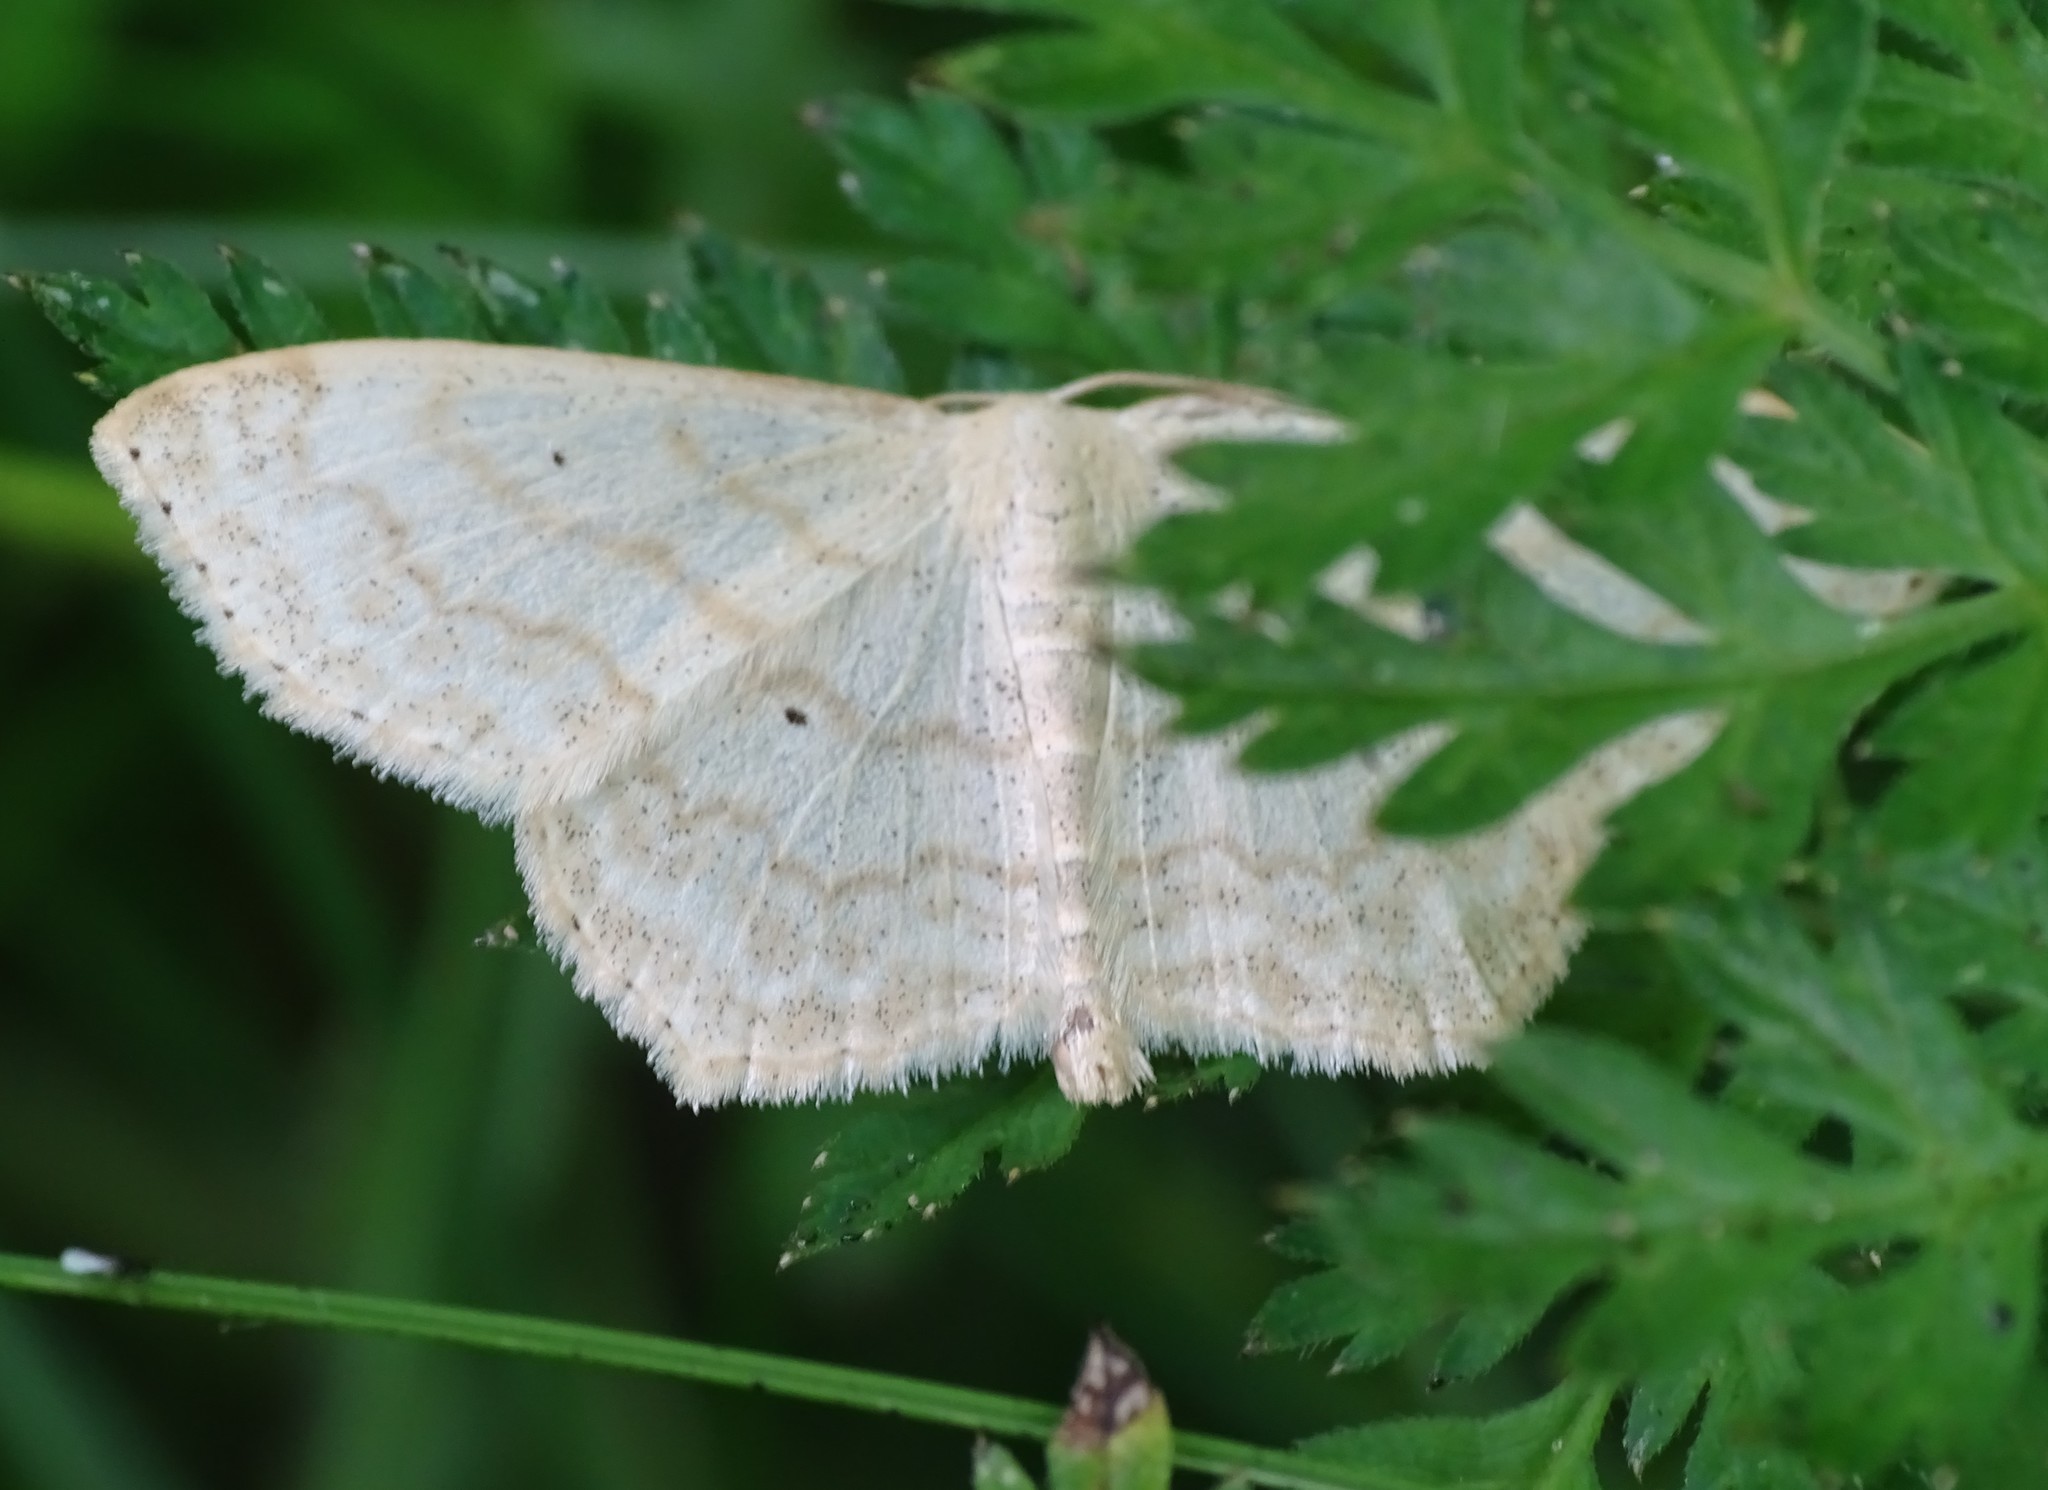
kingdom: Animalia
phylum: Arthropoda
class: Insecta
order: Lepidoptera
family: Geometridae
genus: Scopula
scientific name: Scopula limboundata
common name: Large lace border
